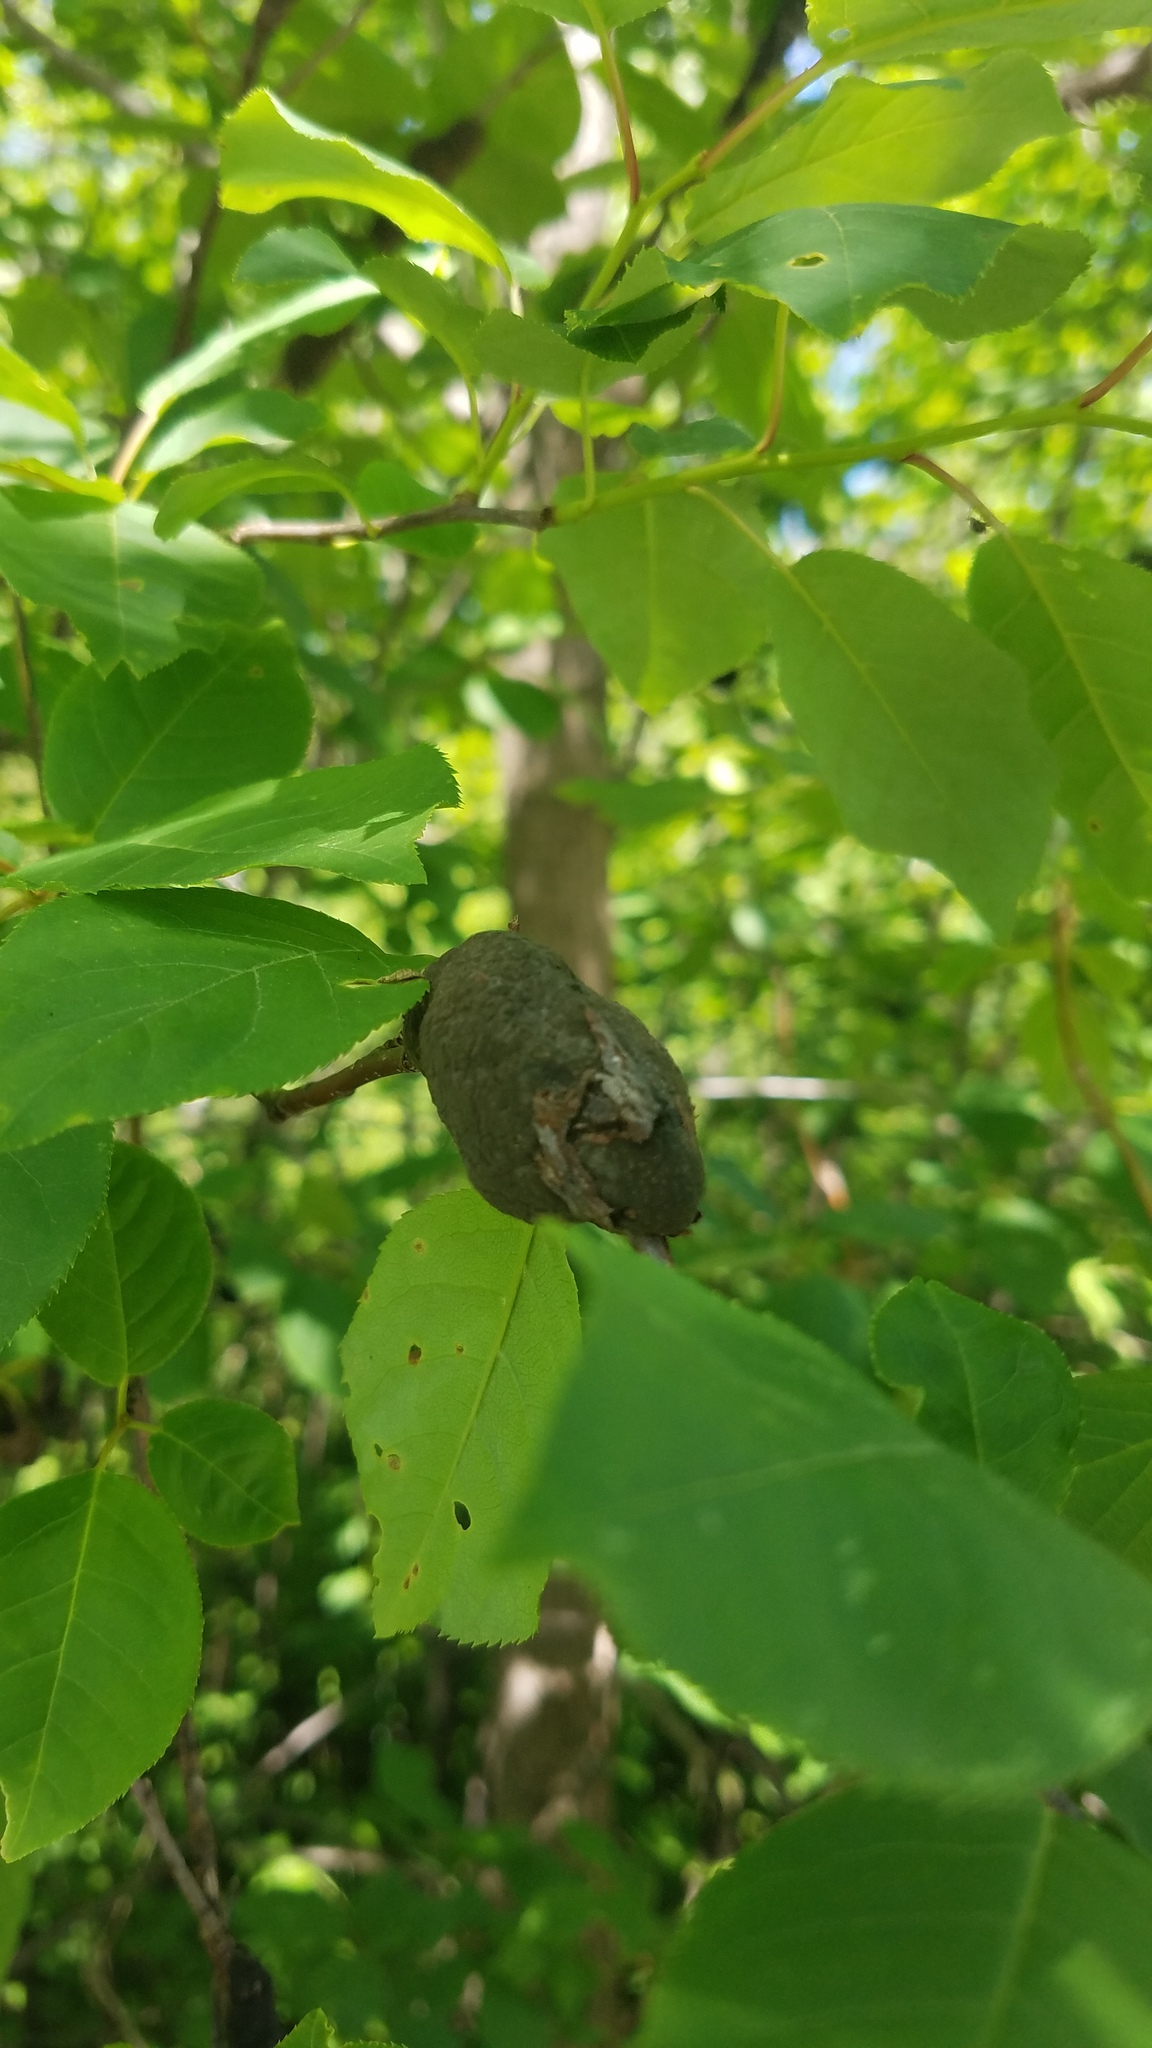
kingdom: Fungi
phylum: Ascomycota
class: Dothideomycetes
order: Venturiales
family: Venturiaceae
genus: Apiosporina
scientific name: Apiosporina morbosa
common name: Black knot
